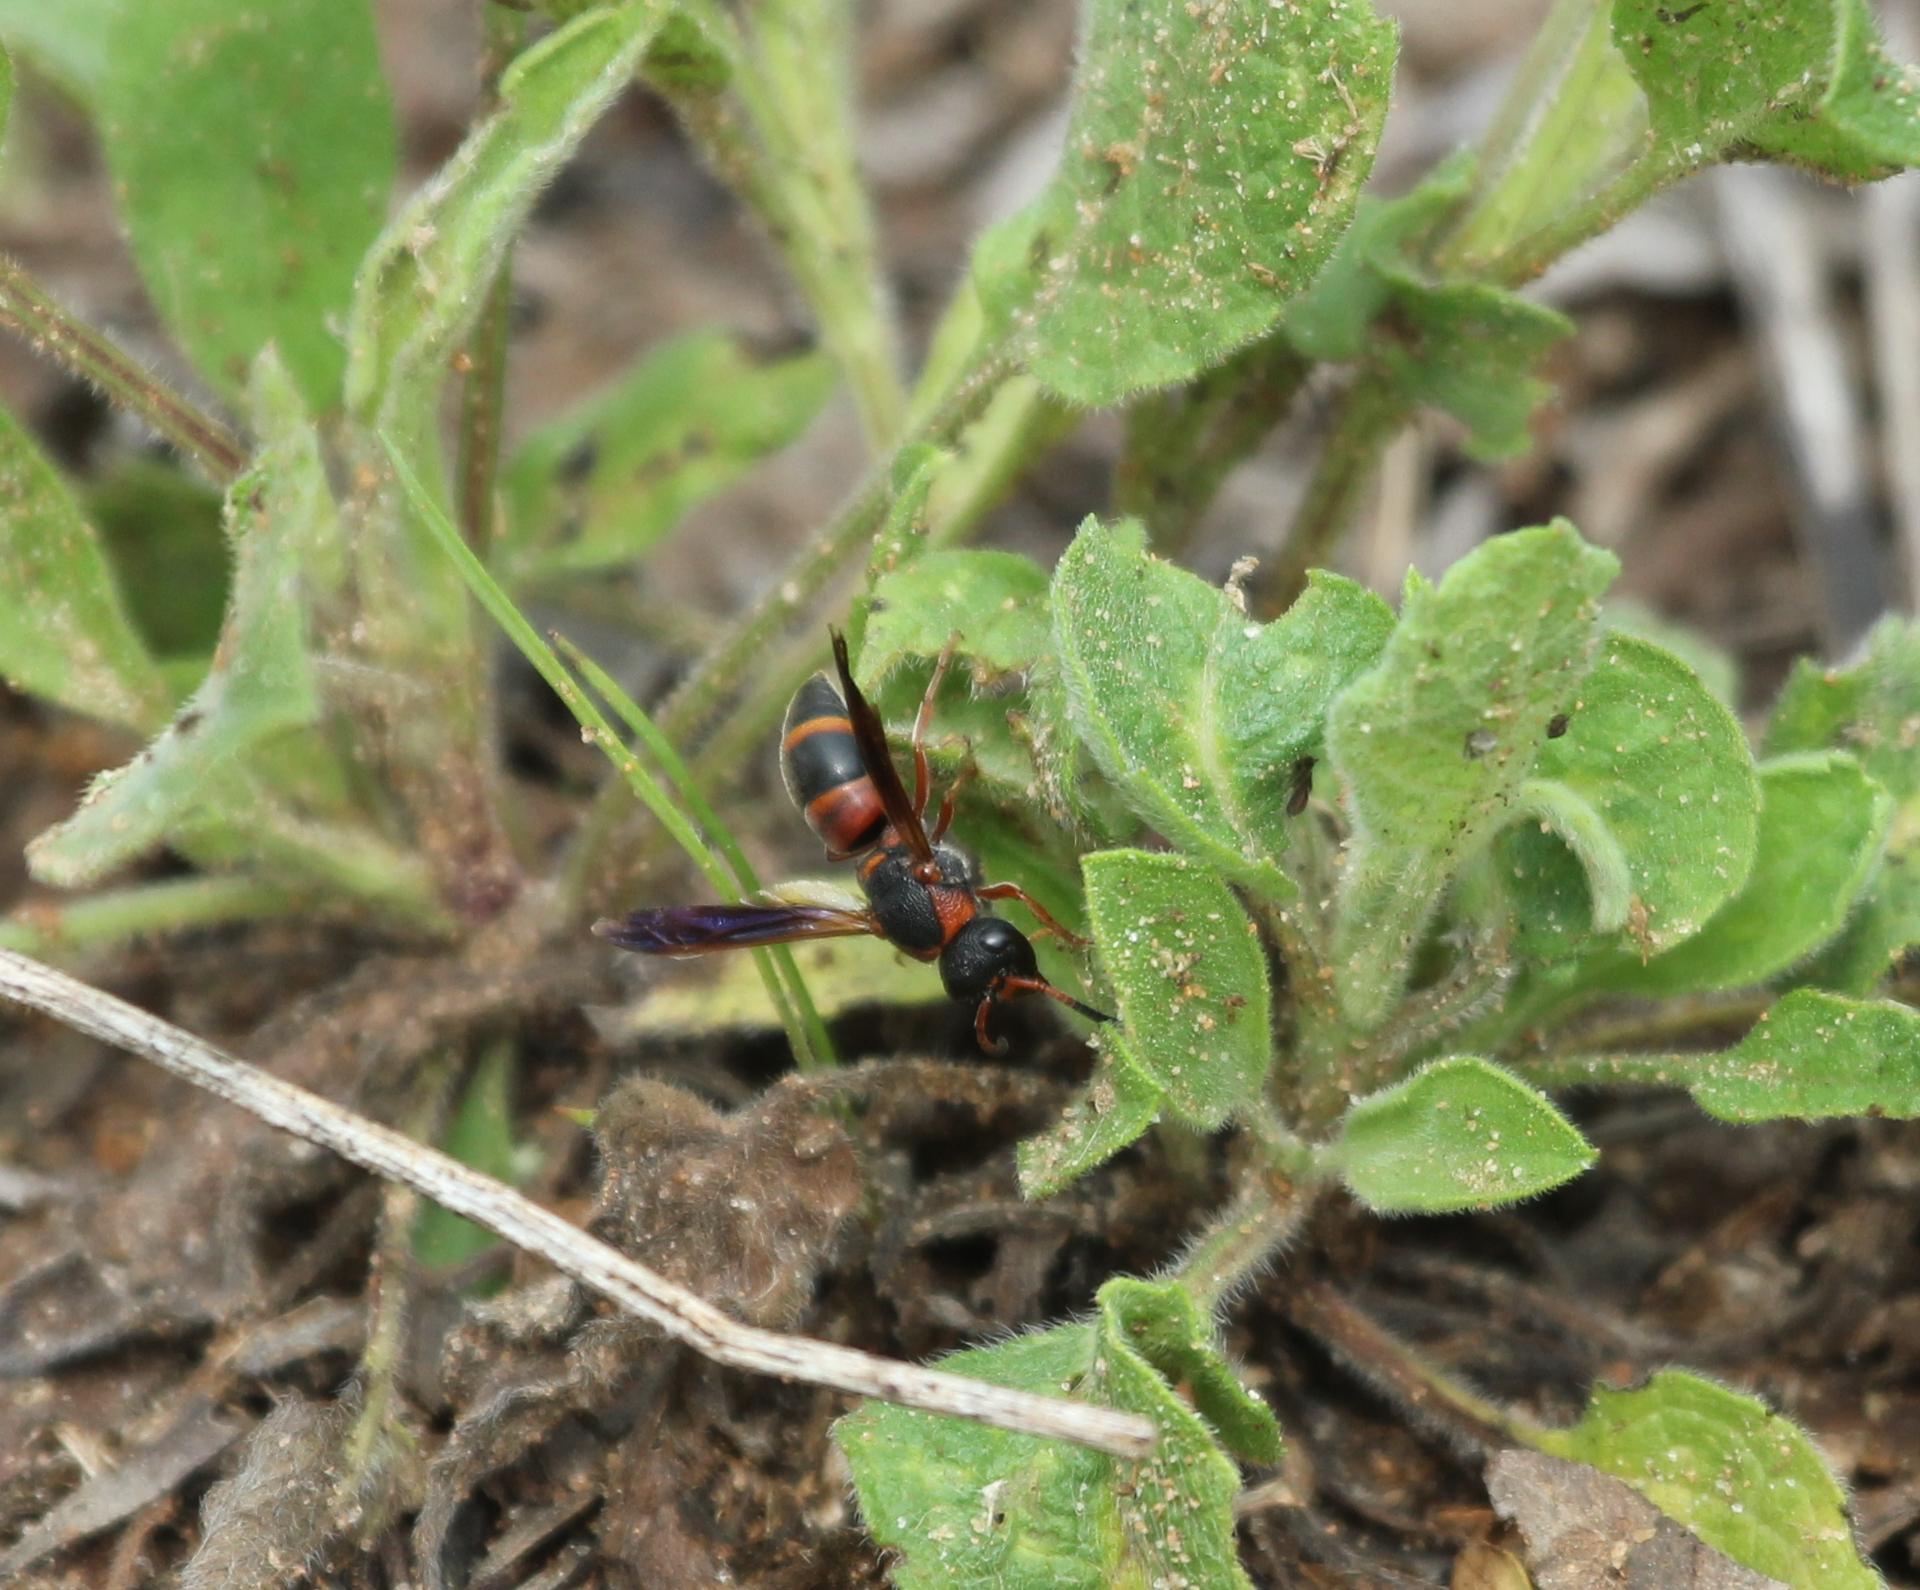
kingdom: Animalia
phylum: Arthropoda
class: Insecta
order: Hymenoptera
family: Eumenidae
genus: Pachodynerus
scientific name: Pachodynerus erynnis
